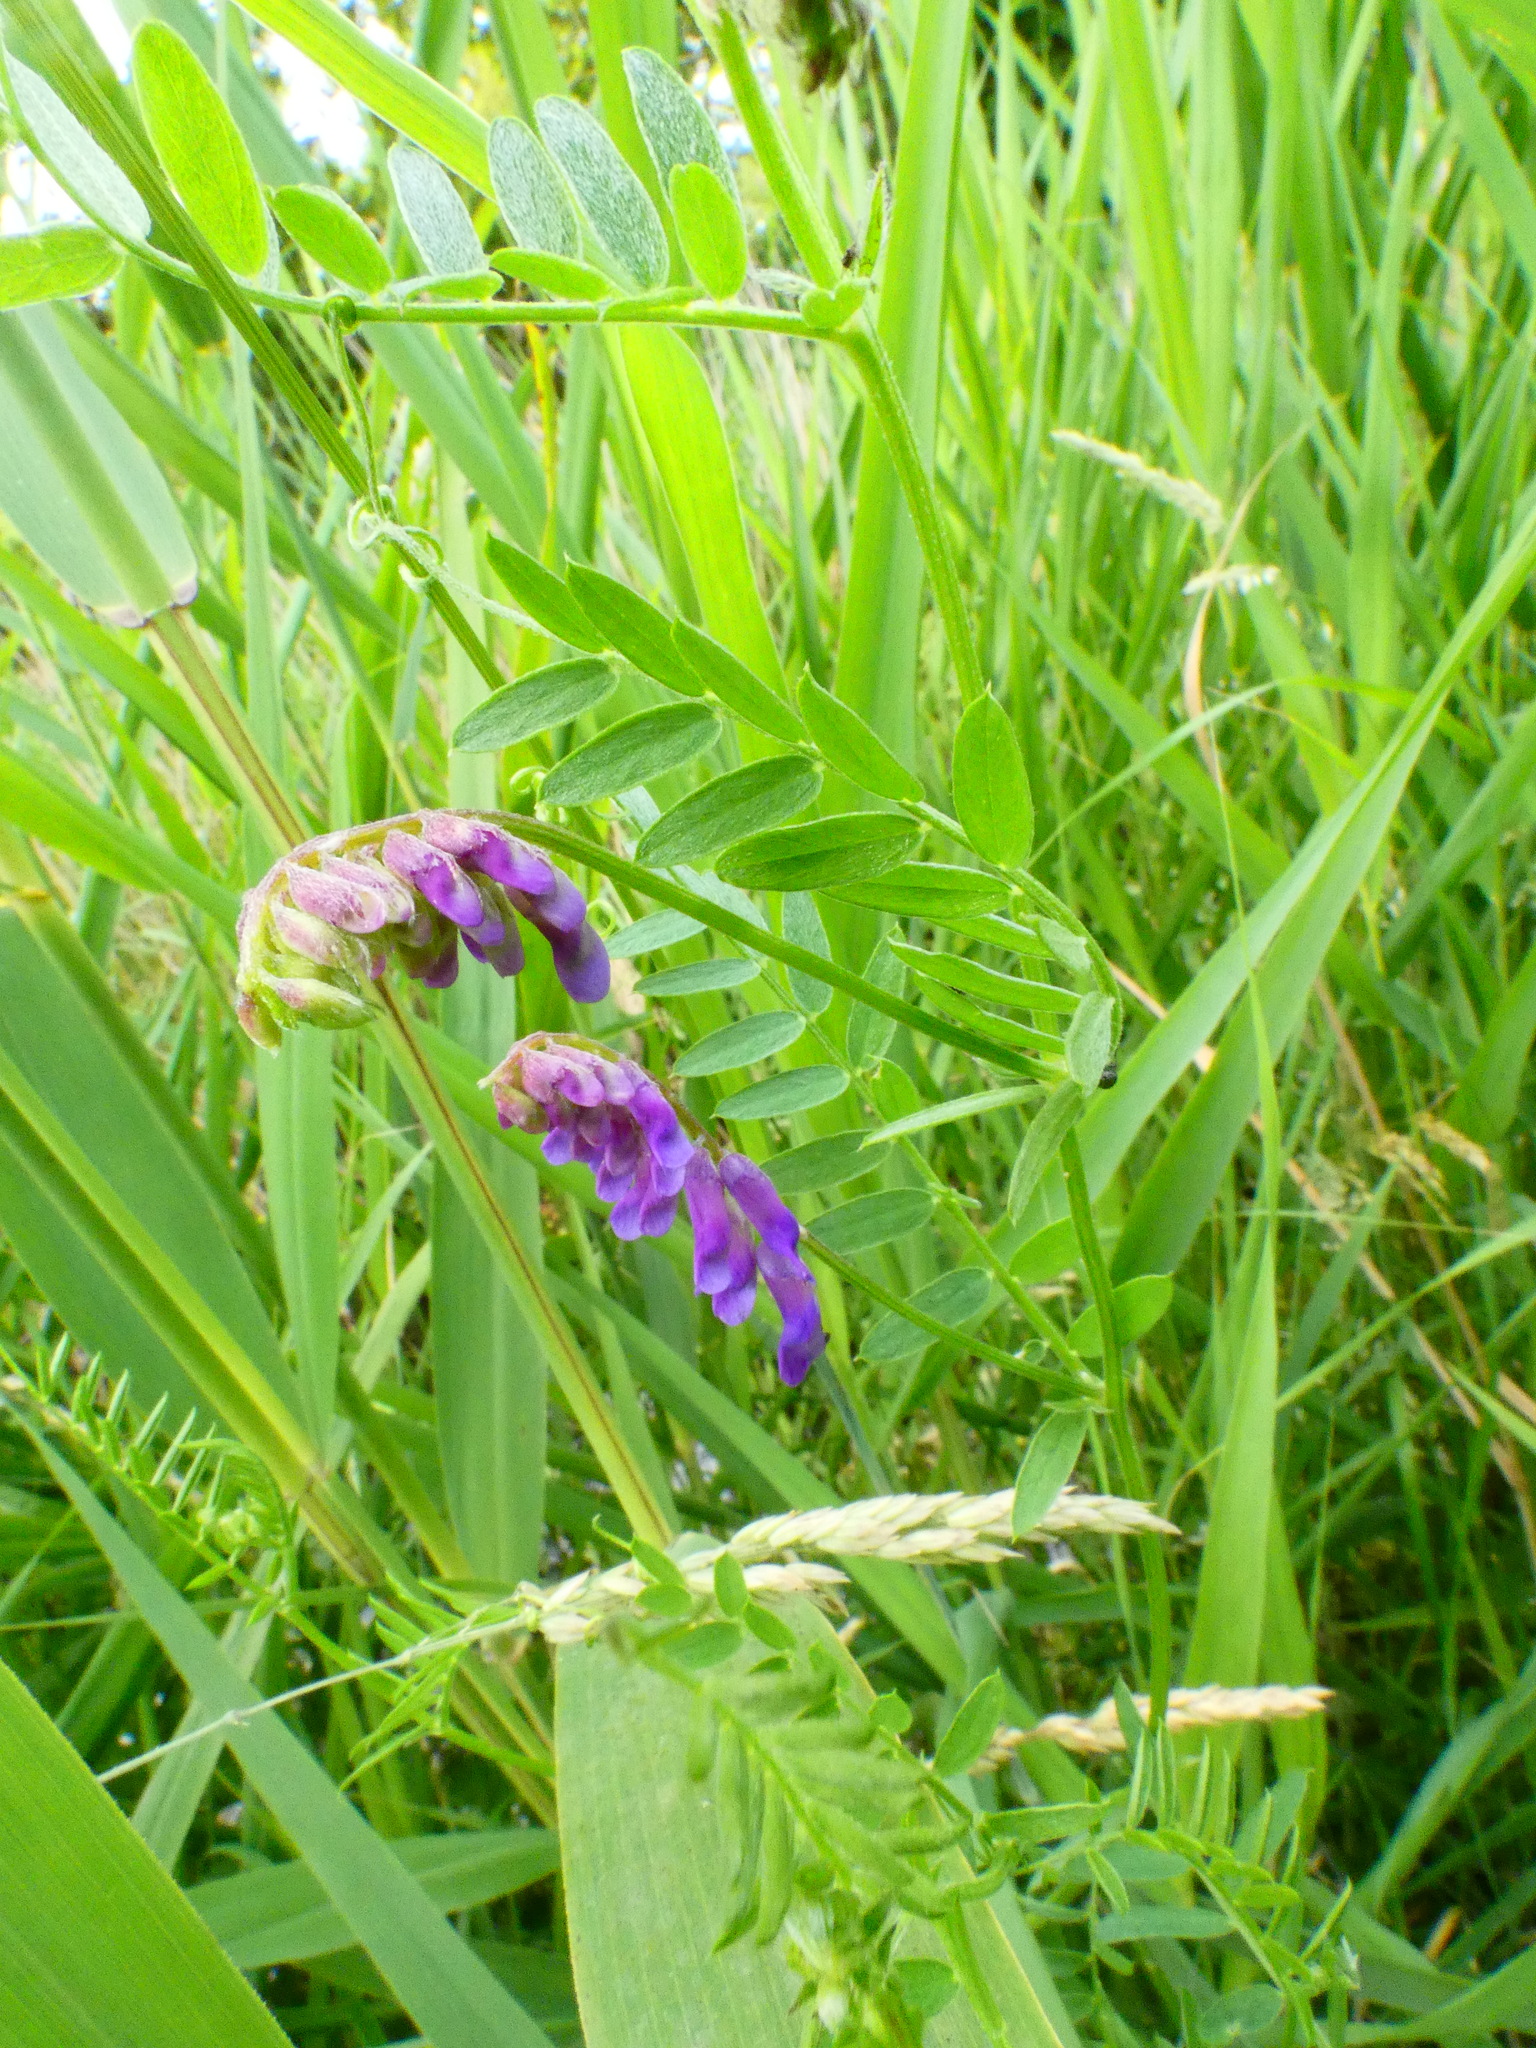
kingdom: Plantae
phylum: Tracheophyta
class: Magnoliopsida
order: Fabales
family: Fabaceae
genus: Vicia
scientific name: Vicia cracca
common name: Bird vetch
